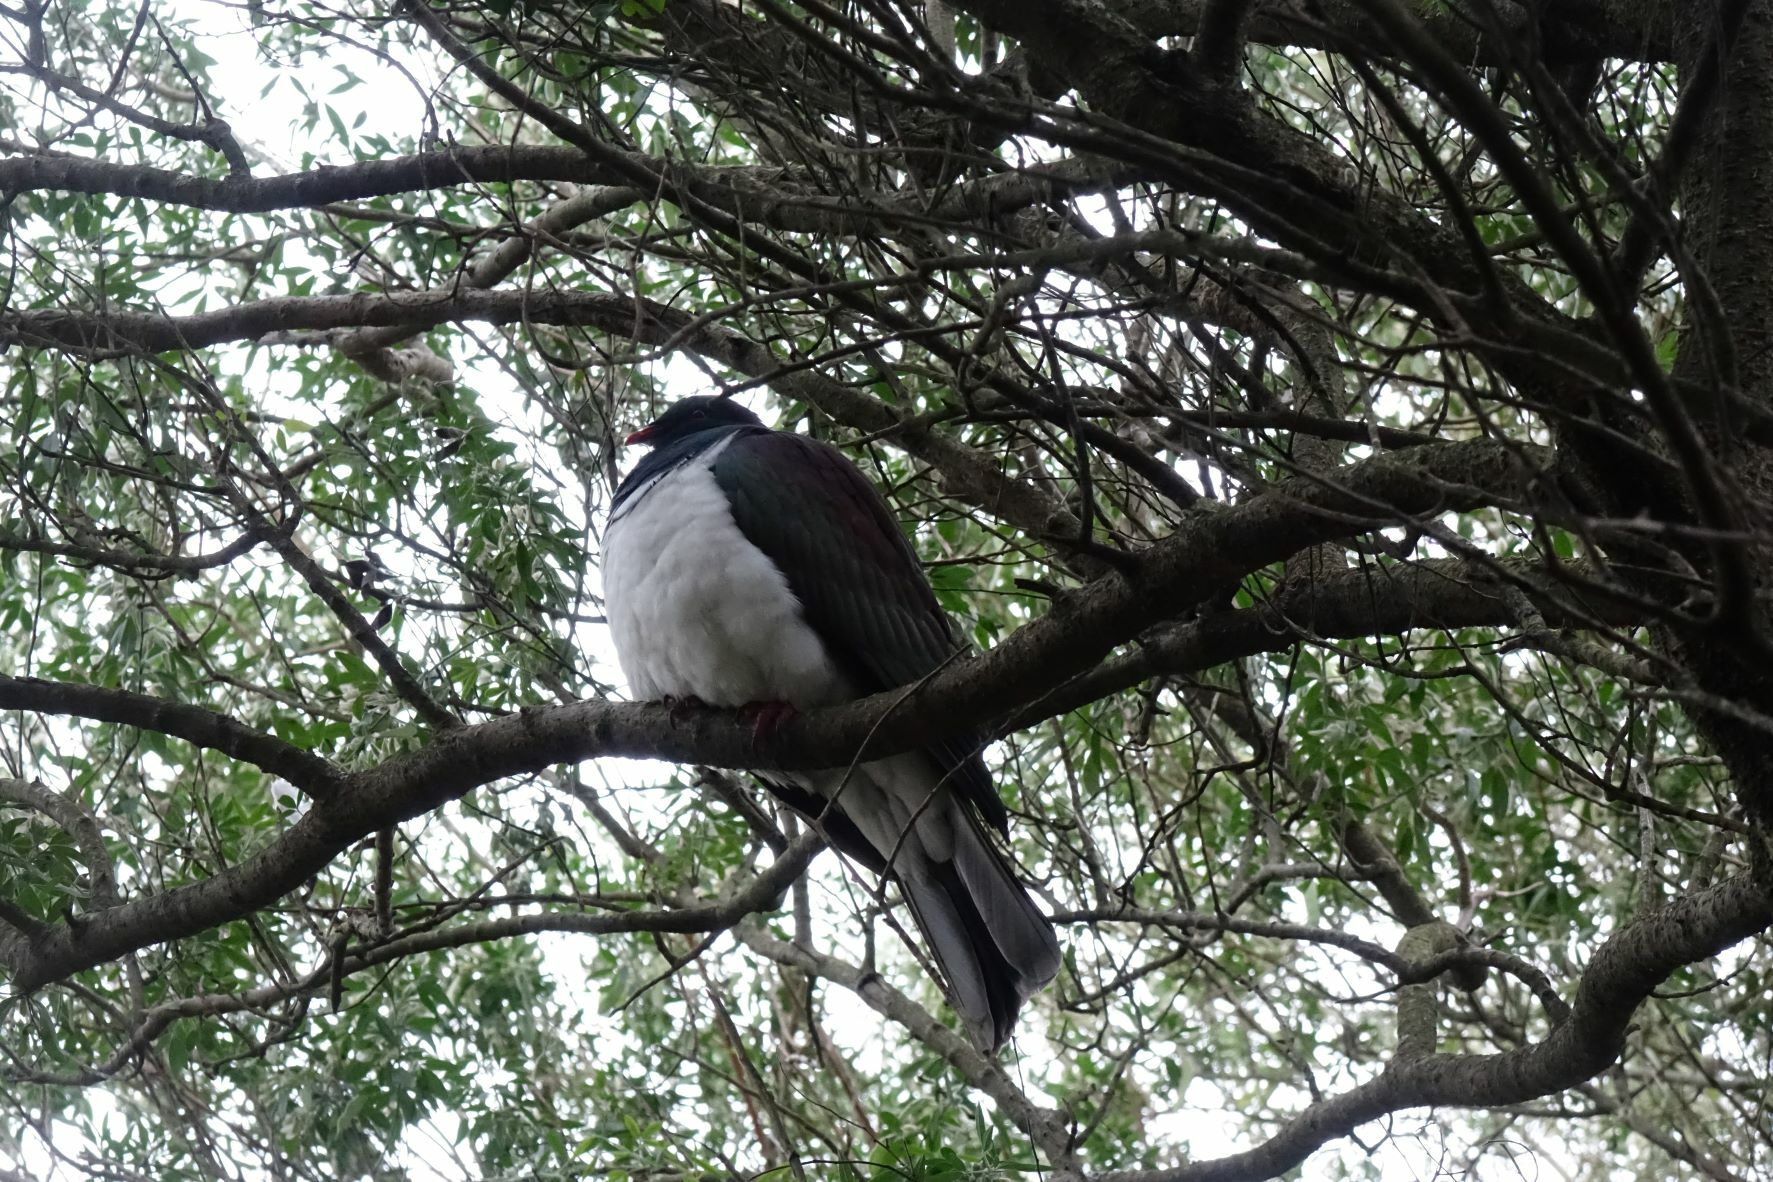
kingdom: Animalia
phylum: Chordata
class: Aves
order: Columbiformes
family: Columbidae
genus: Hemiphaga
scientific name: Hemiphaga novaeseelandiae
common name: New zealand pigeon
